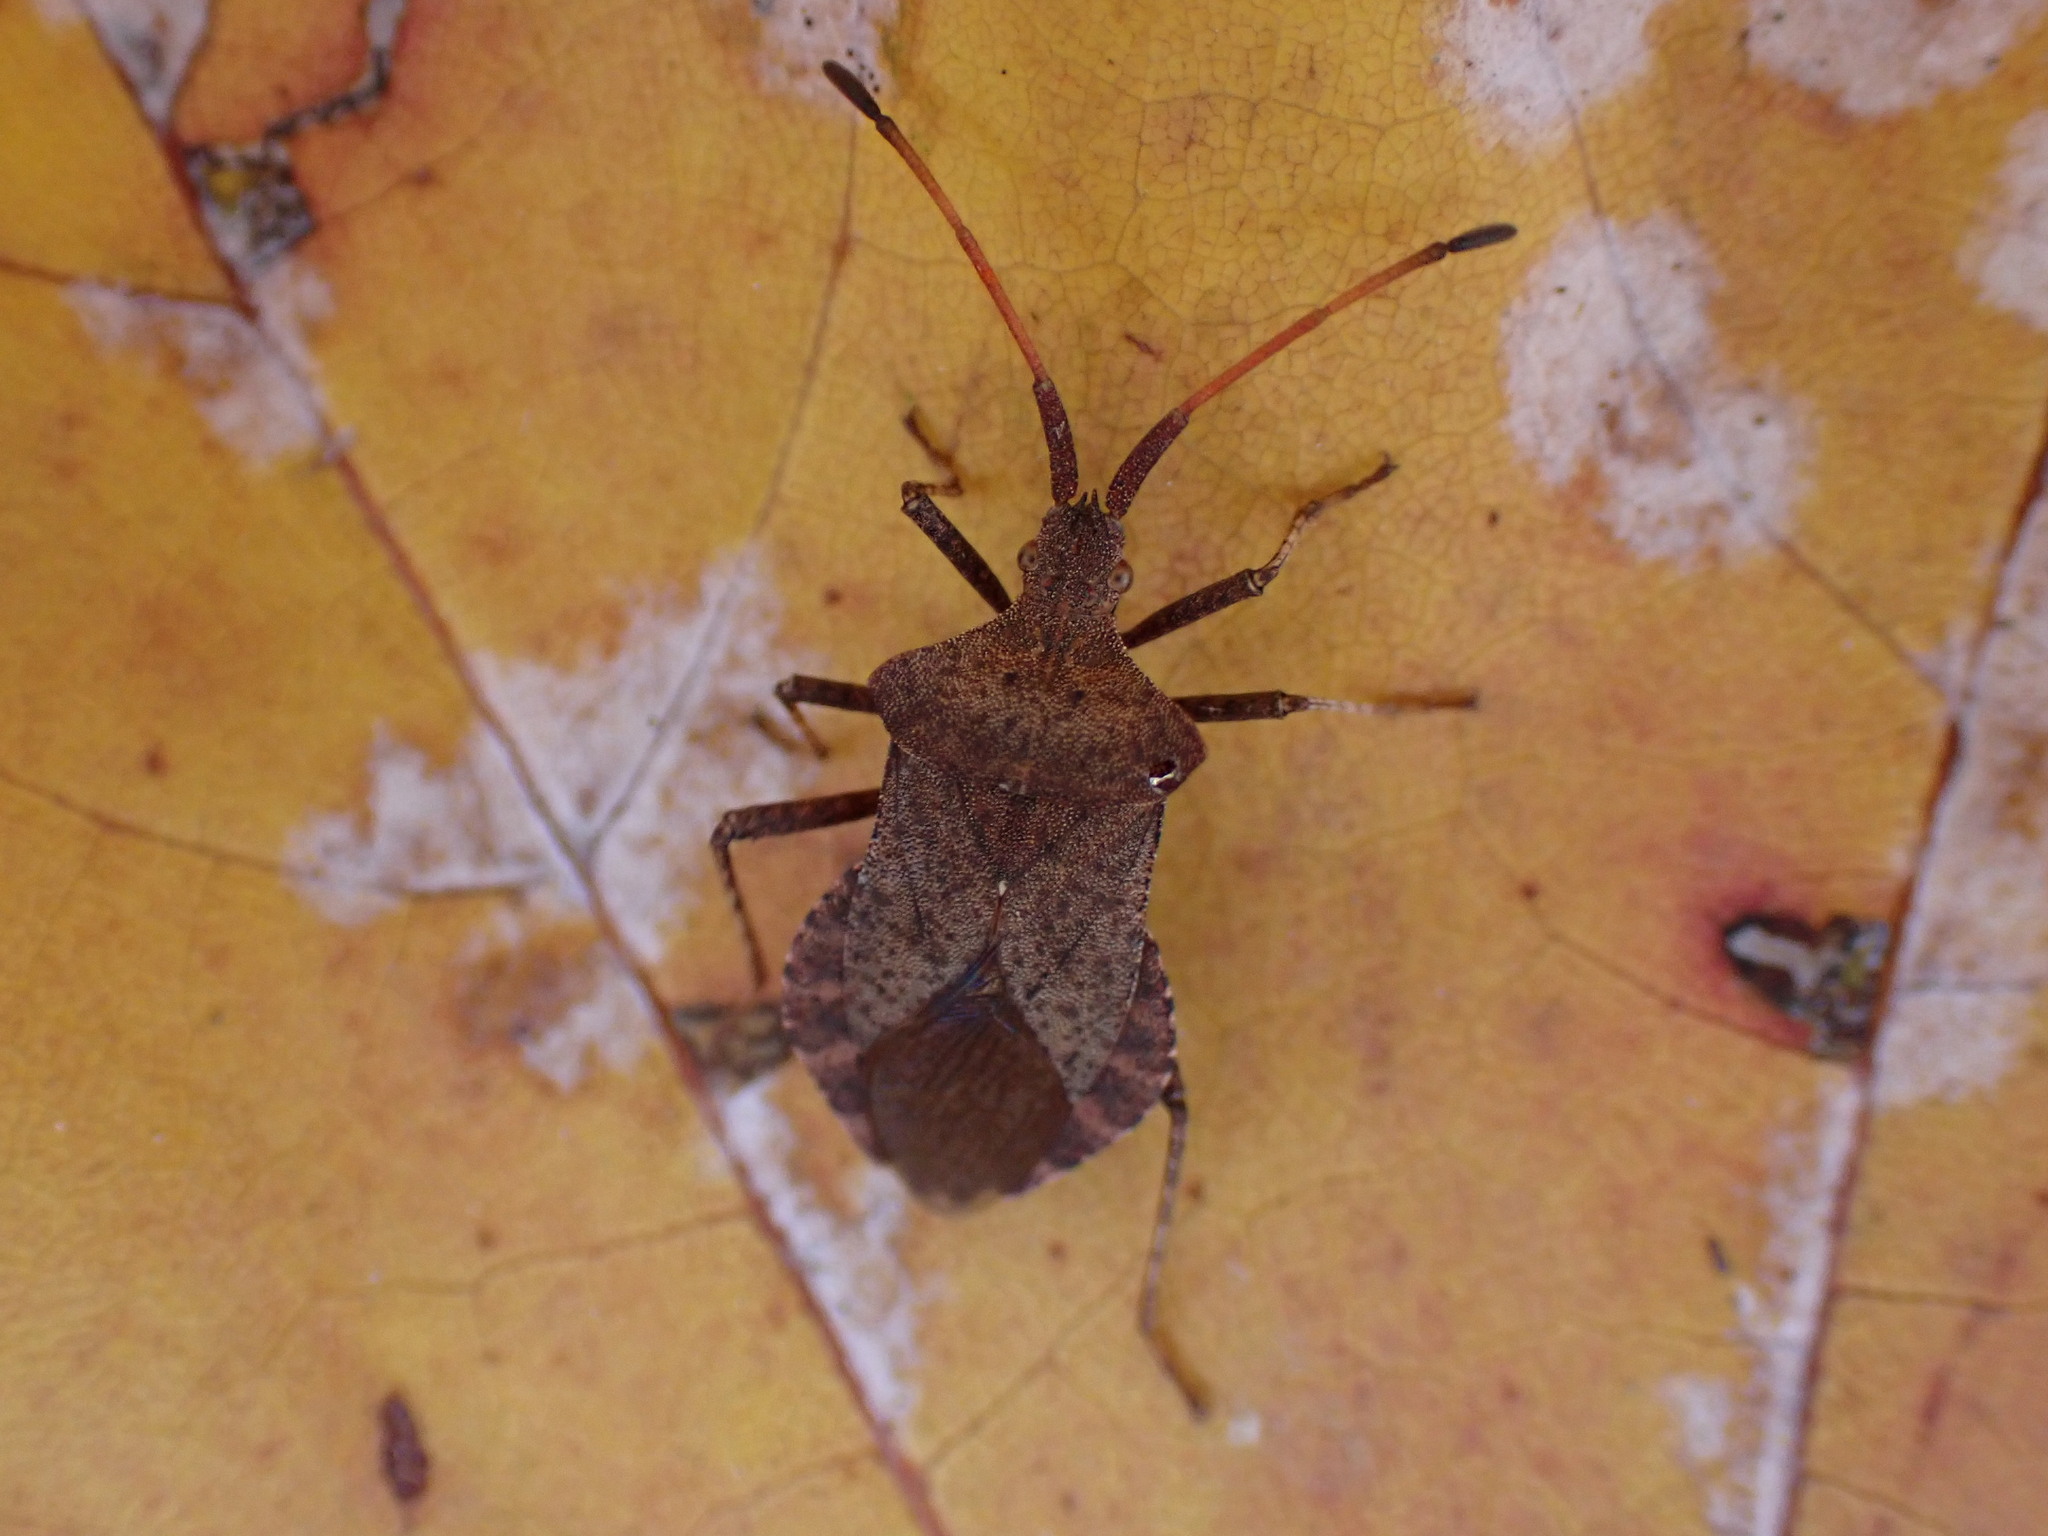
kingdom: Animalia
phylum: Arthropoda
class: Insecta
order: Hemiptera
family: Coreidae
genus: Coreus
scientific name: Coreus marginatus
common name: Dock bug
